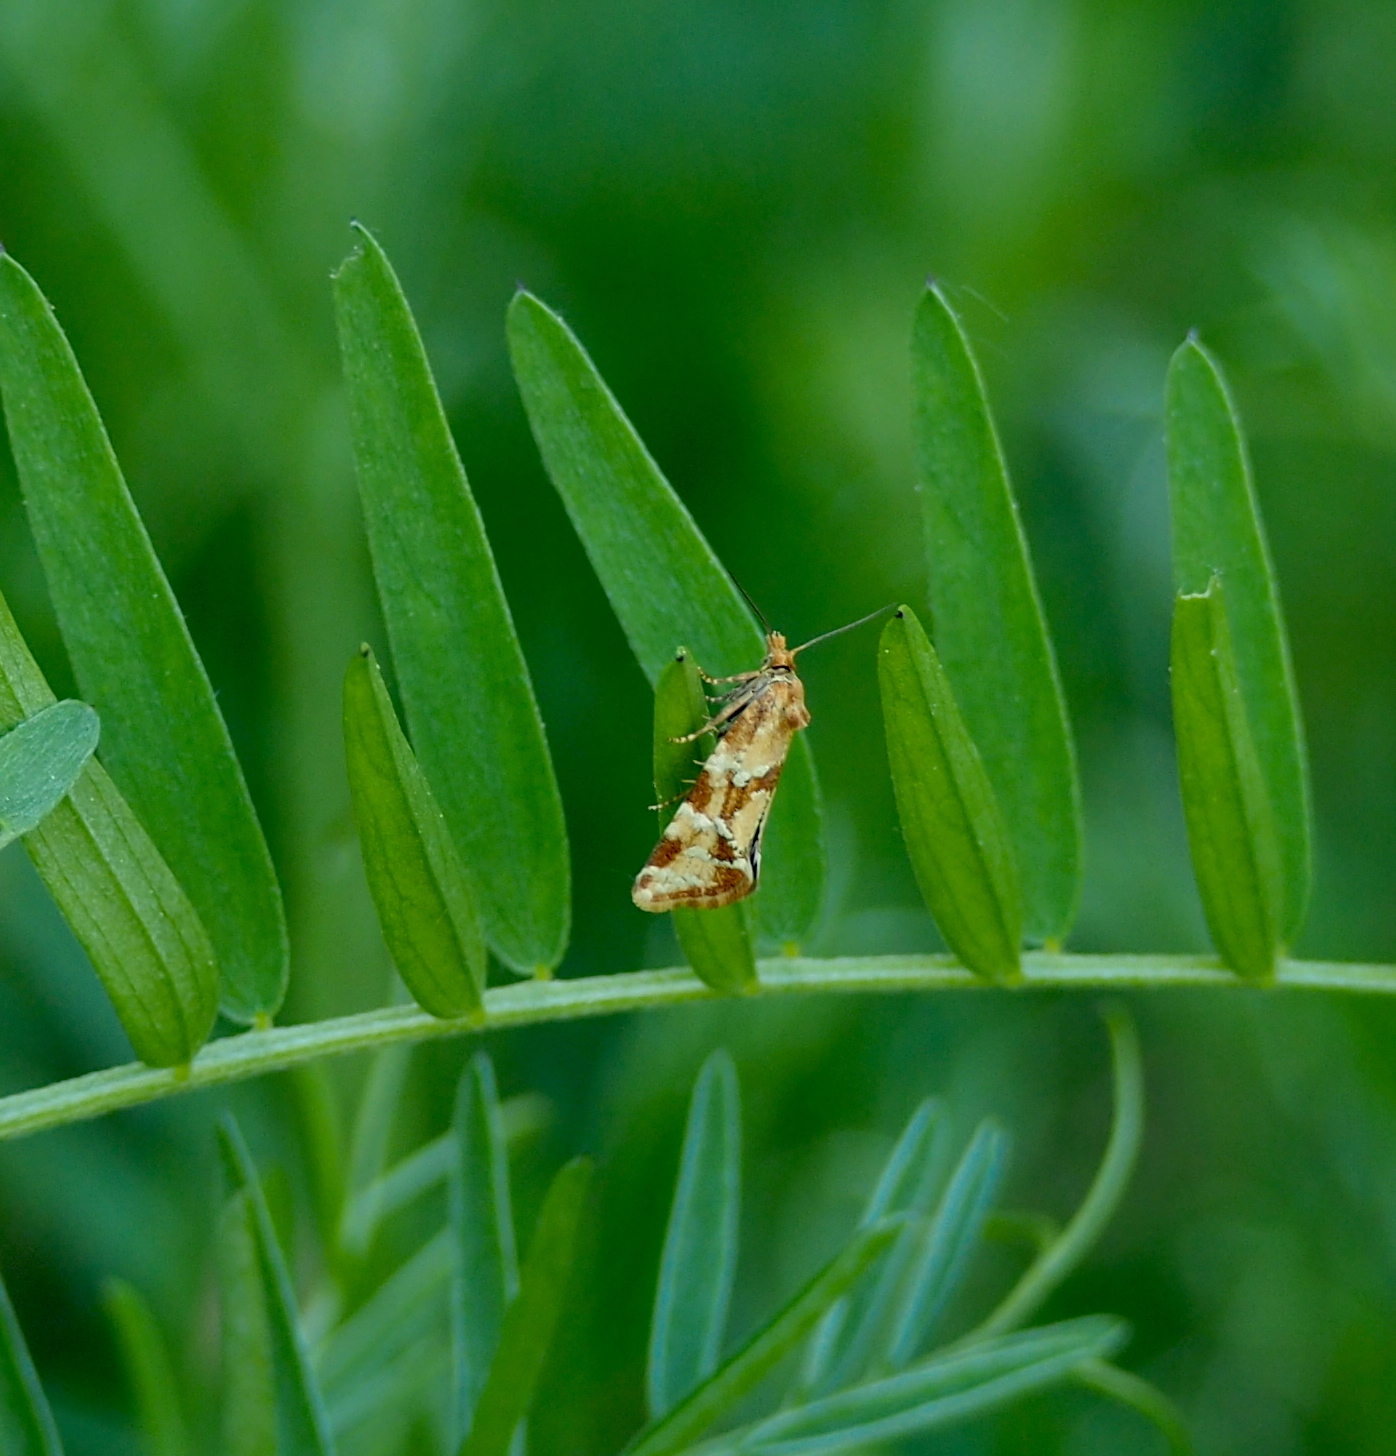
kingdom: Animalia
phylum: Arthropoda
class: Insecta
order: Lepidoptera
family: Tortricidae
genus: Aethes
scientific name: Aethes hartmanniana
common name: Scabious conch
